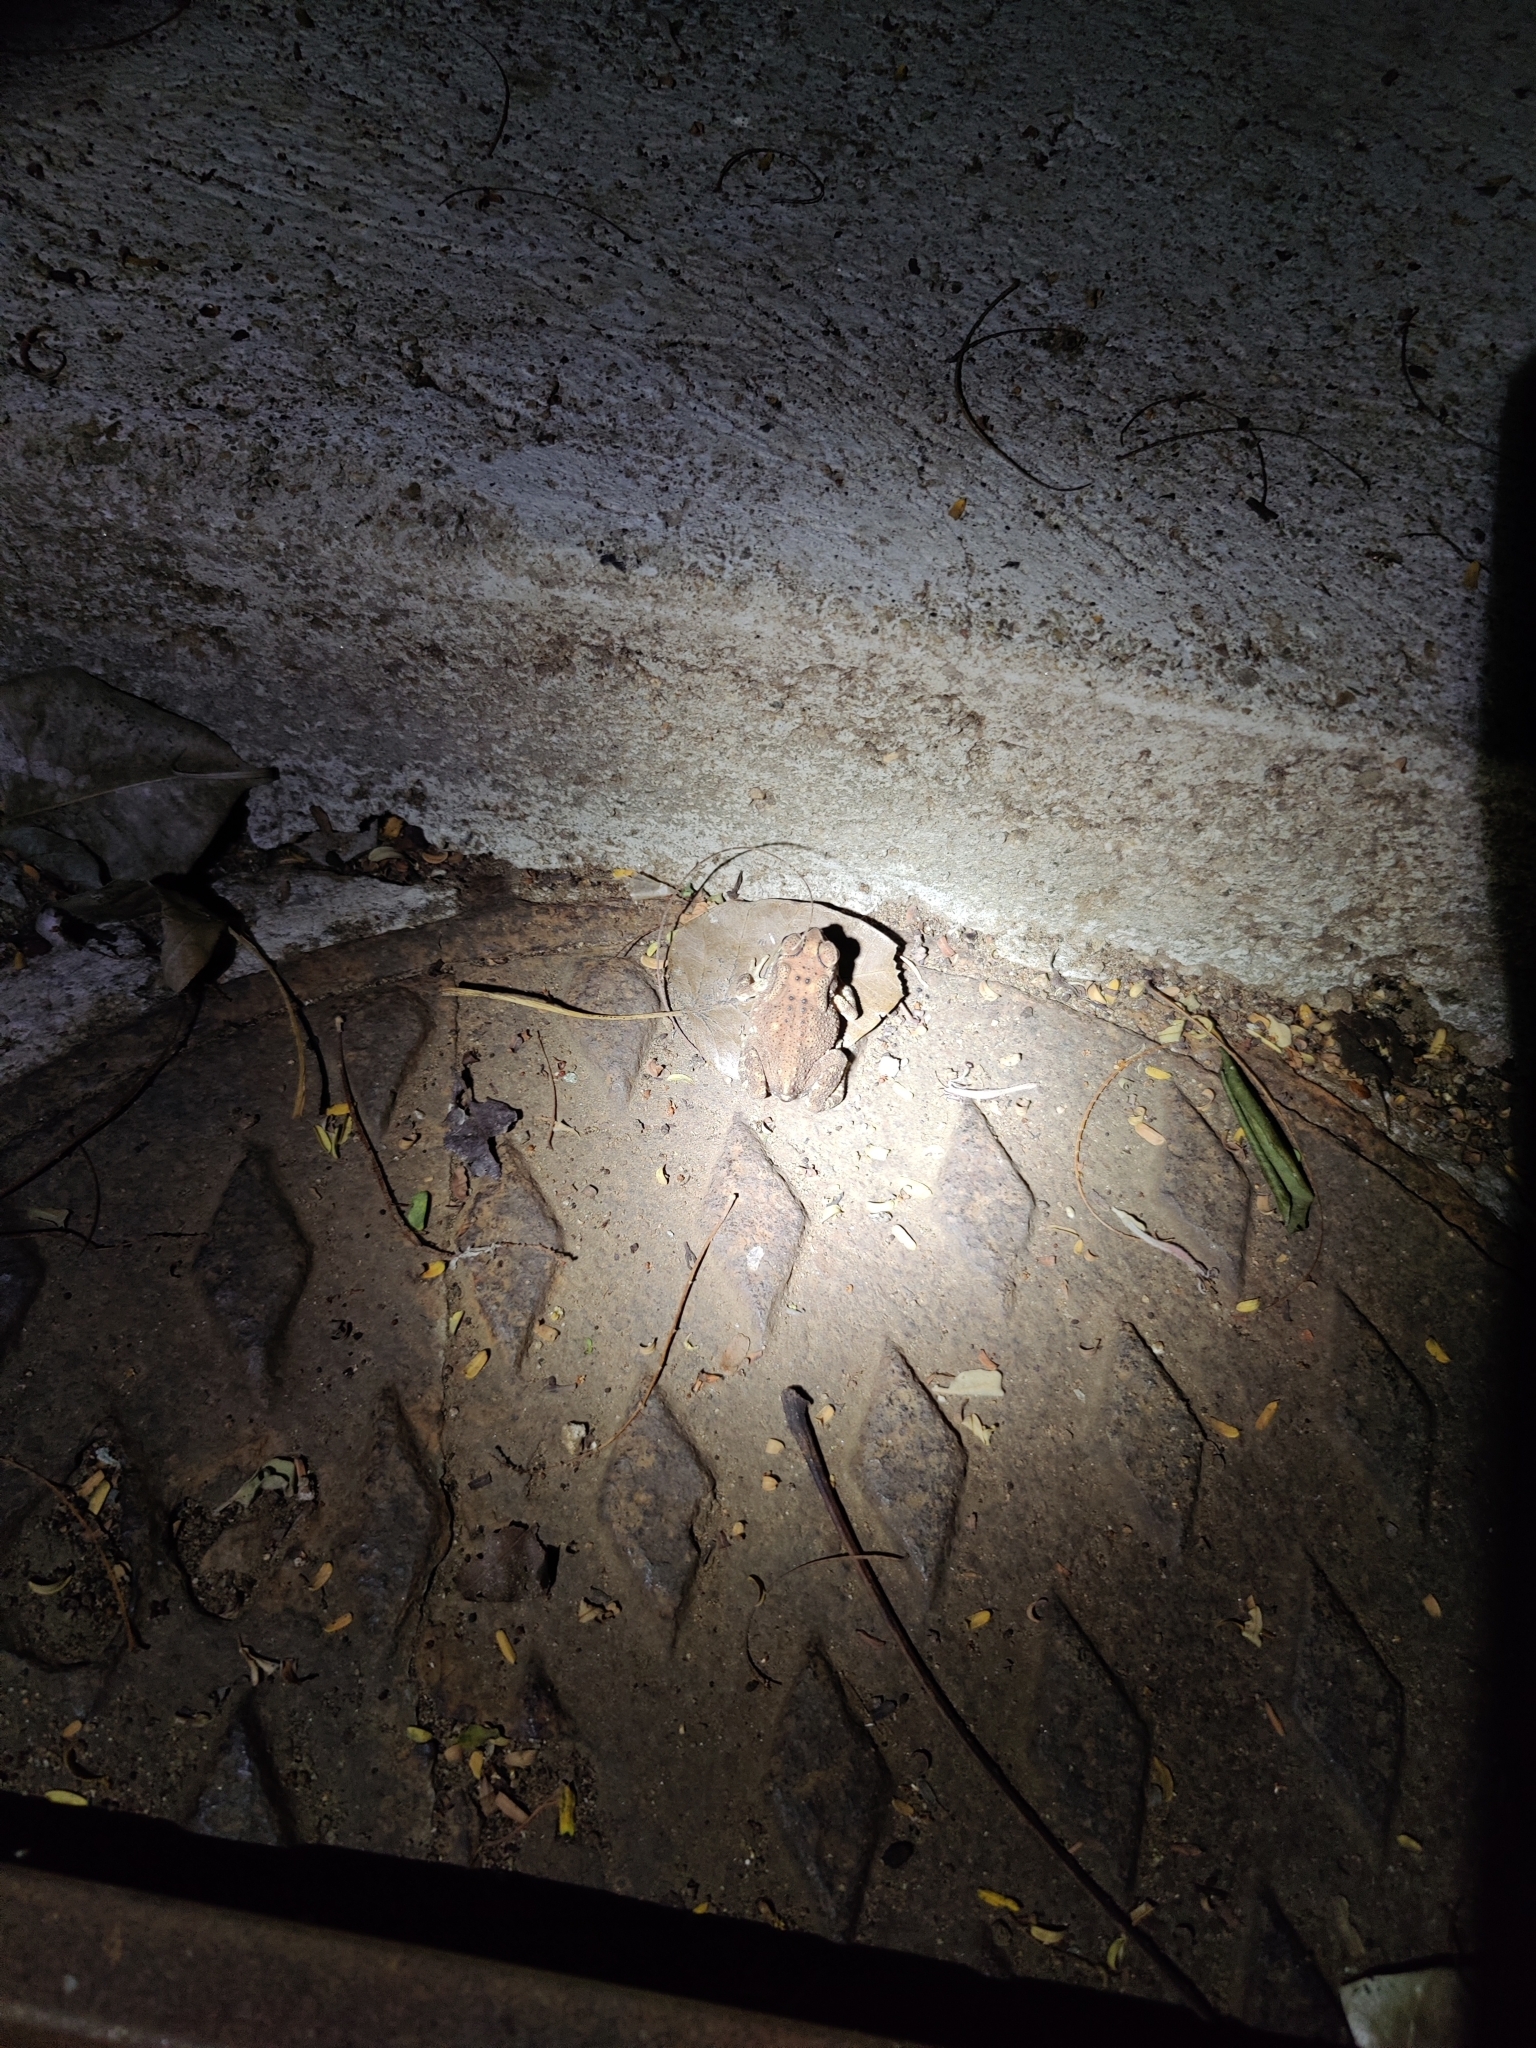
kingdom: Animalia
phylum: Chordata
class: Amphibia
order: Anura
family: Bufonidae
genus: Duttaphrynus
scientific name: Duttaphrynus melanostictus
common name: Common sunda toad
